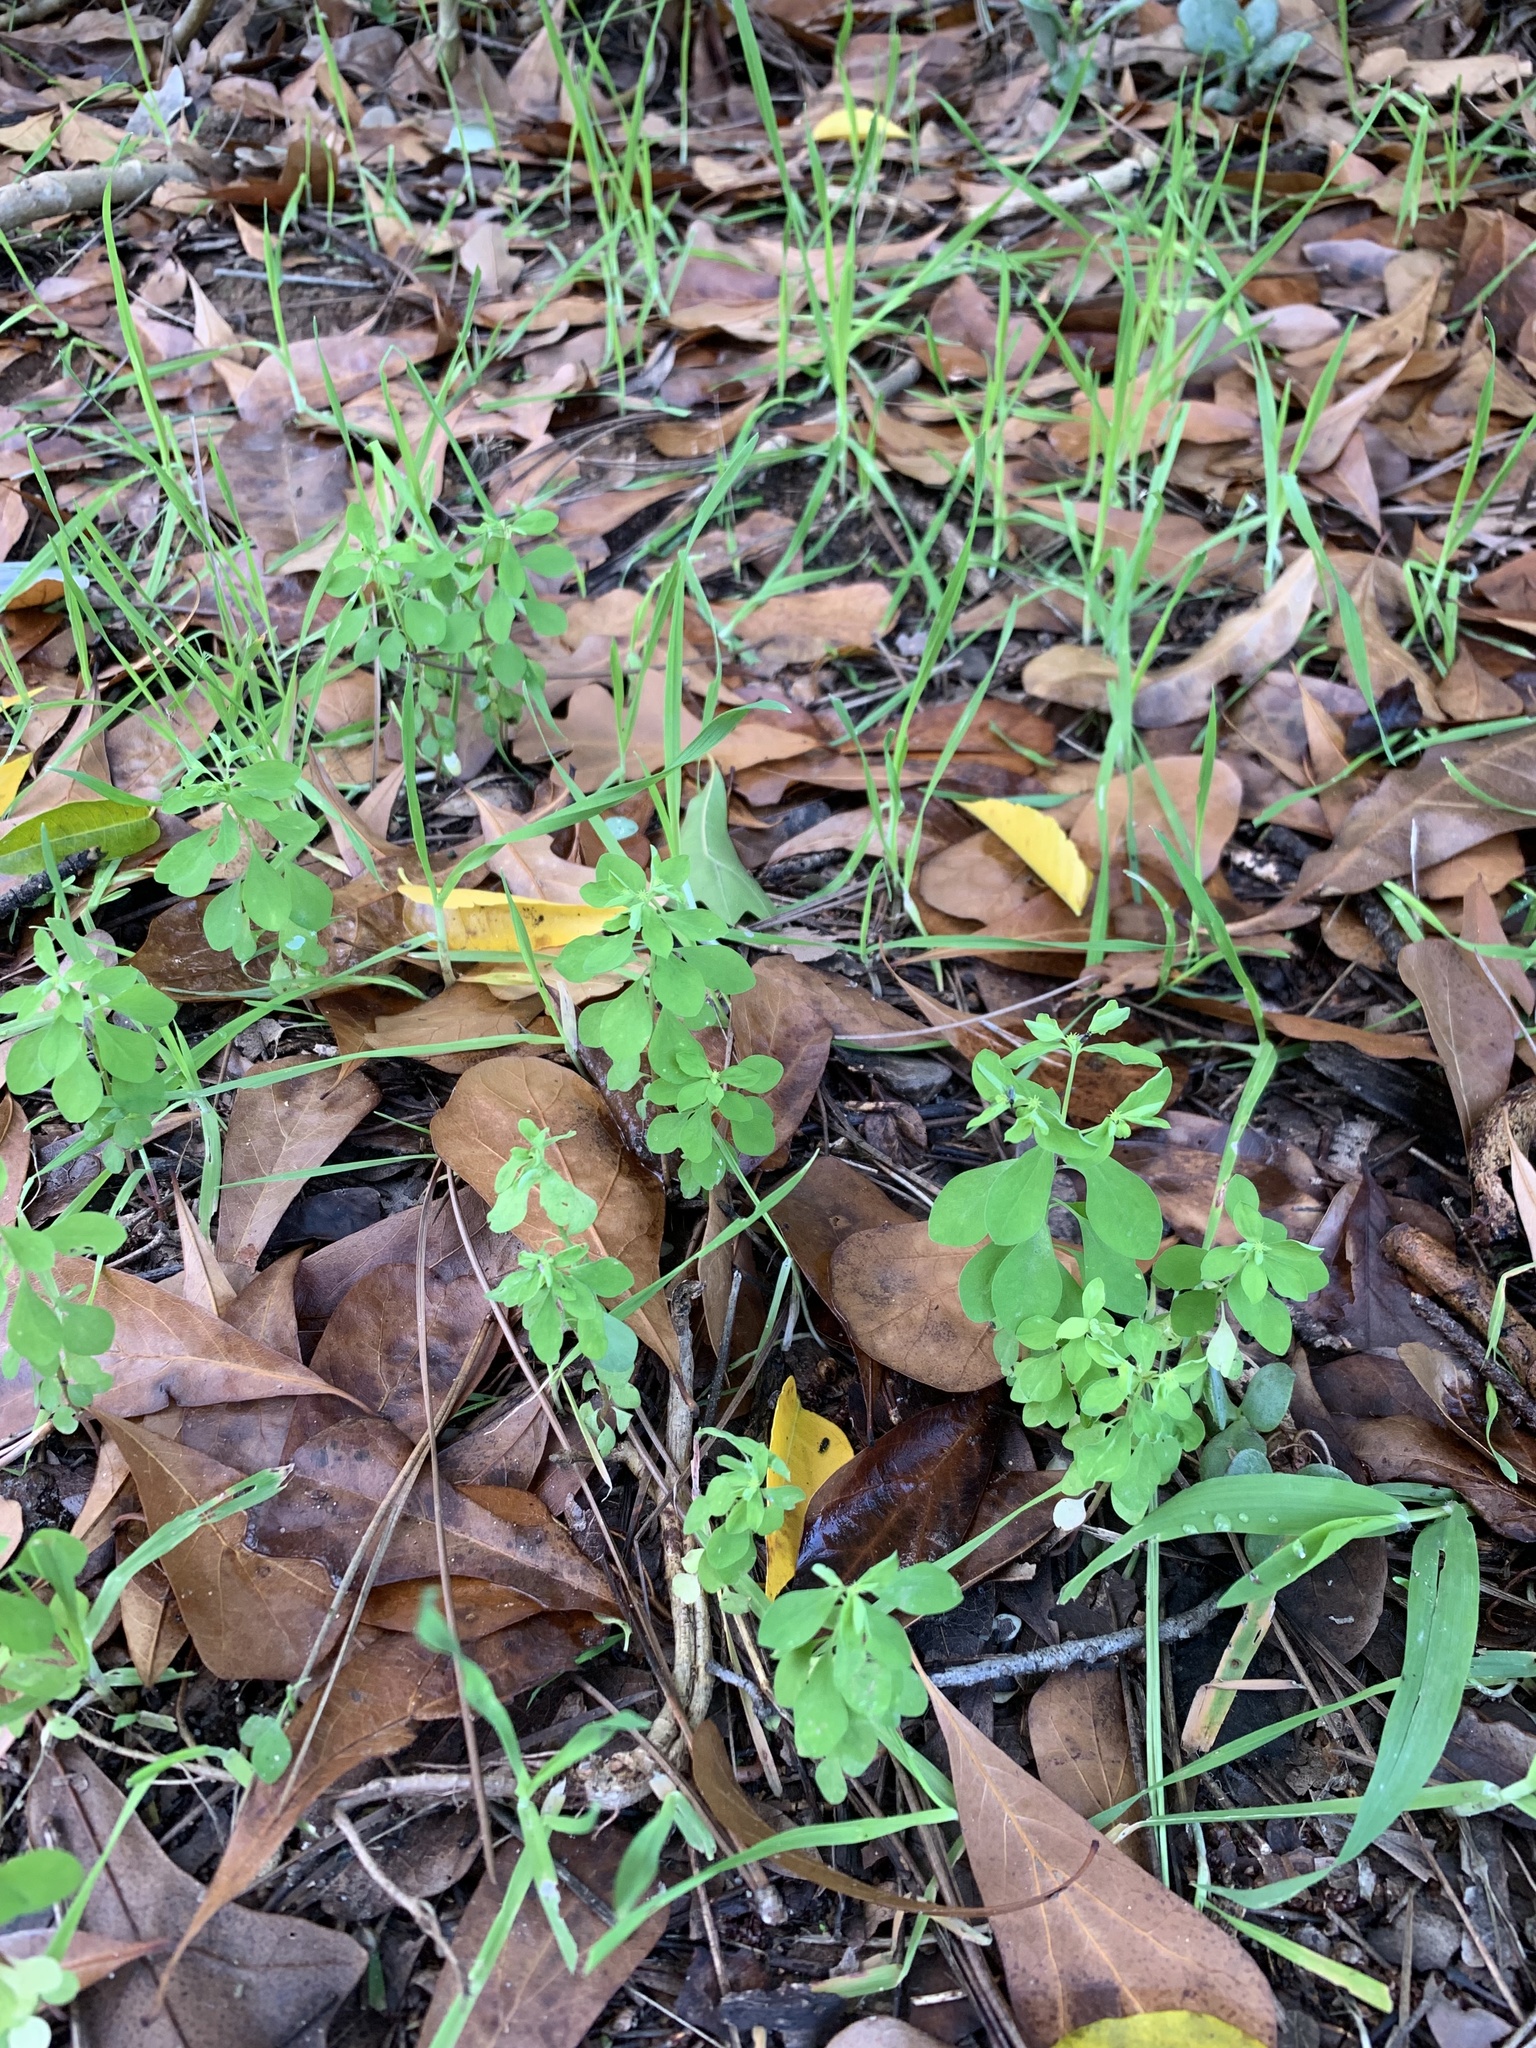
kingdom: Plantae
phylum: Tracheophyta
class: Magnoliopsida
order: Malpighiales
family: Euphorbiaceae
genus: Euphorbia
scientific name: Euphorbia peplus
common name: Petty spurge
